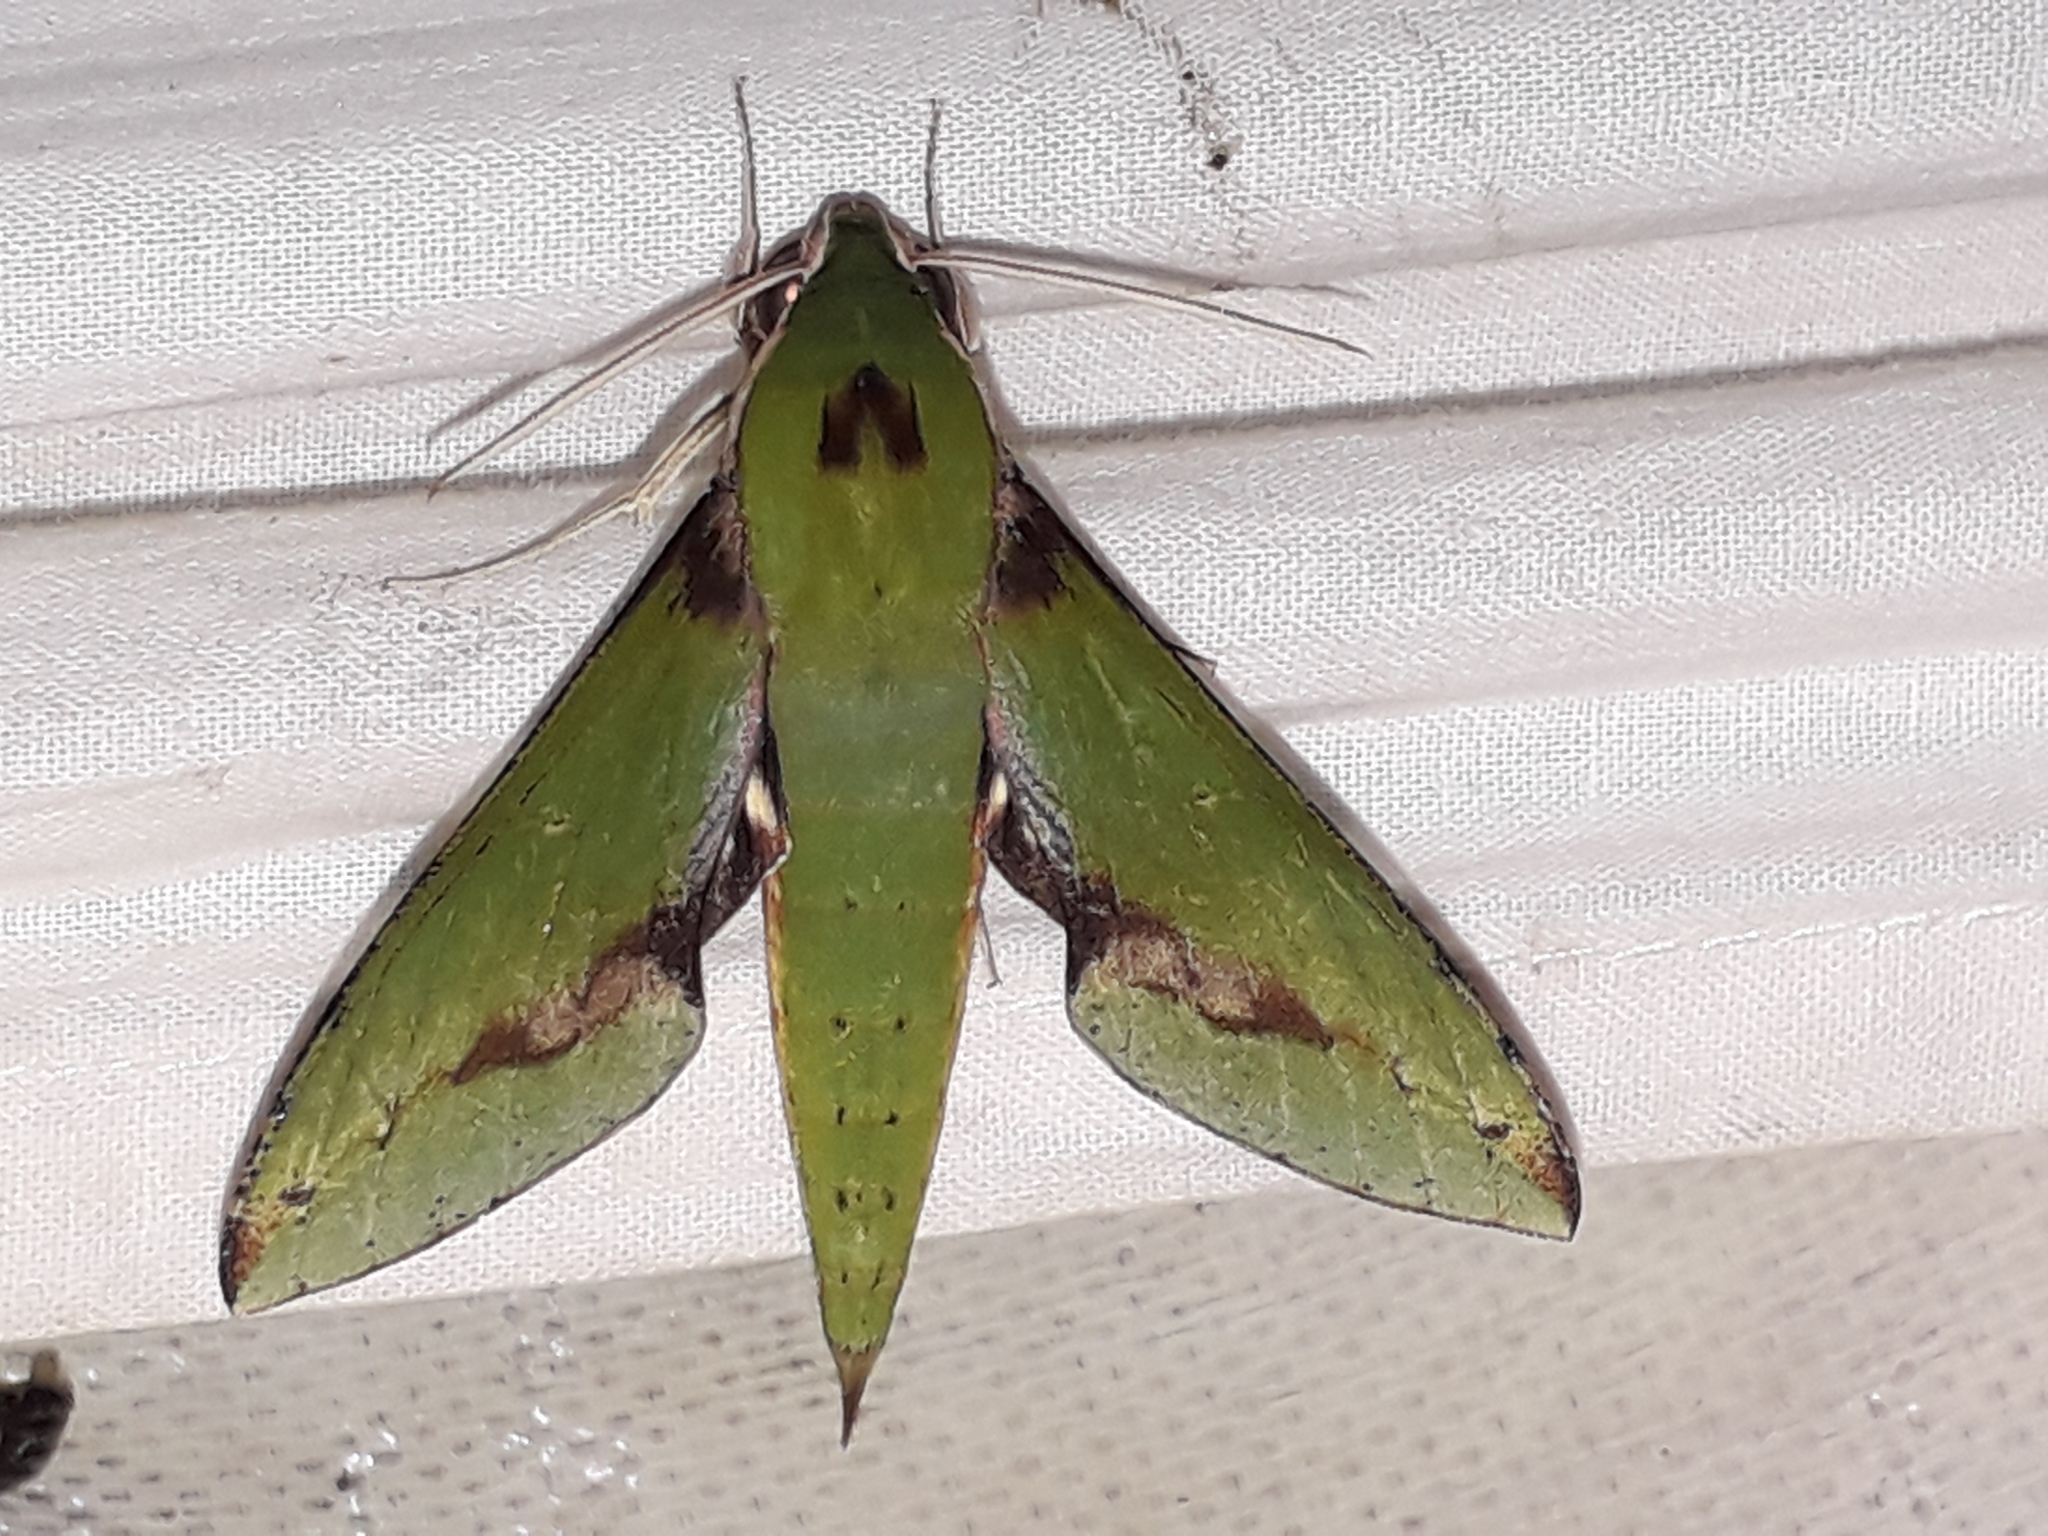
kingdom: Animalia
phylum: Arthropoda
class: Insecta
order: Lepidoptera
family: Sphingidae
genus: Xylophanes
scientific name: Xylophanes chiron
